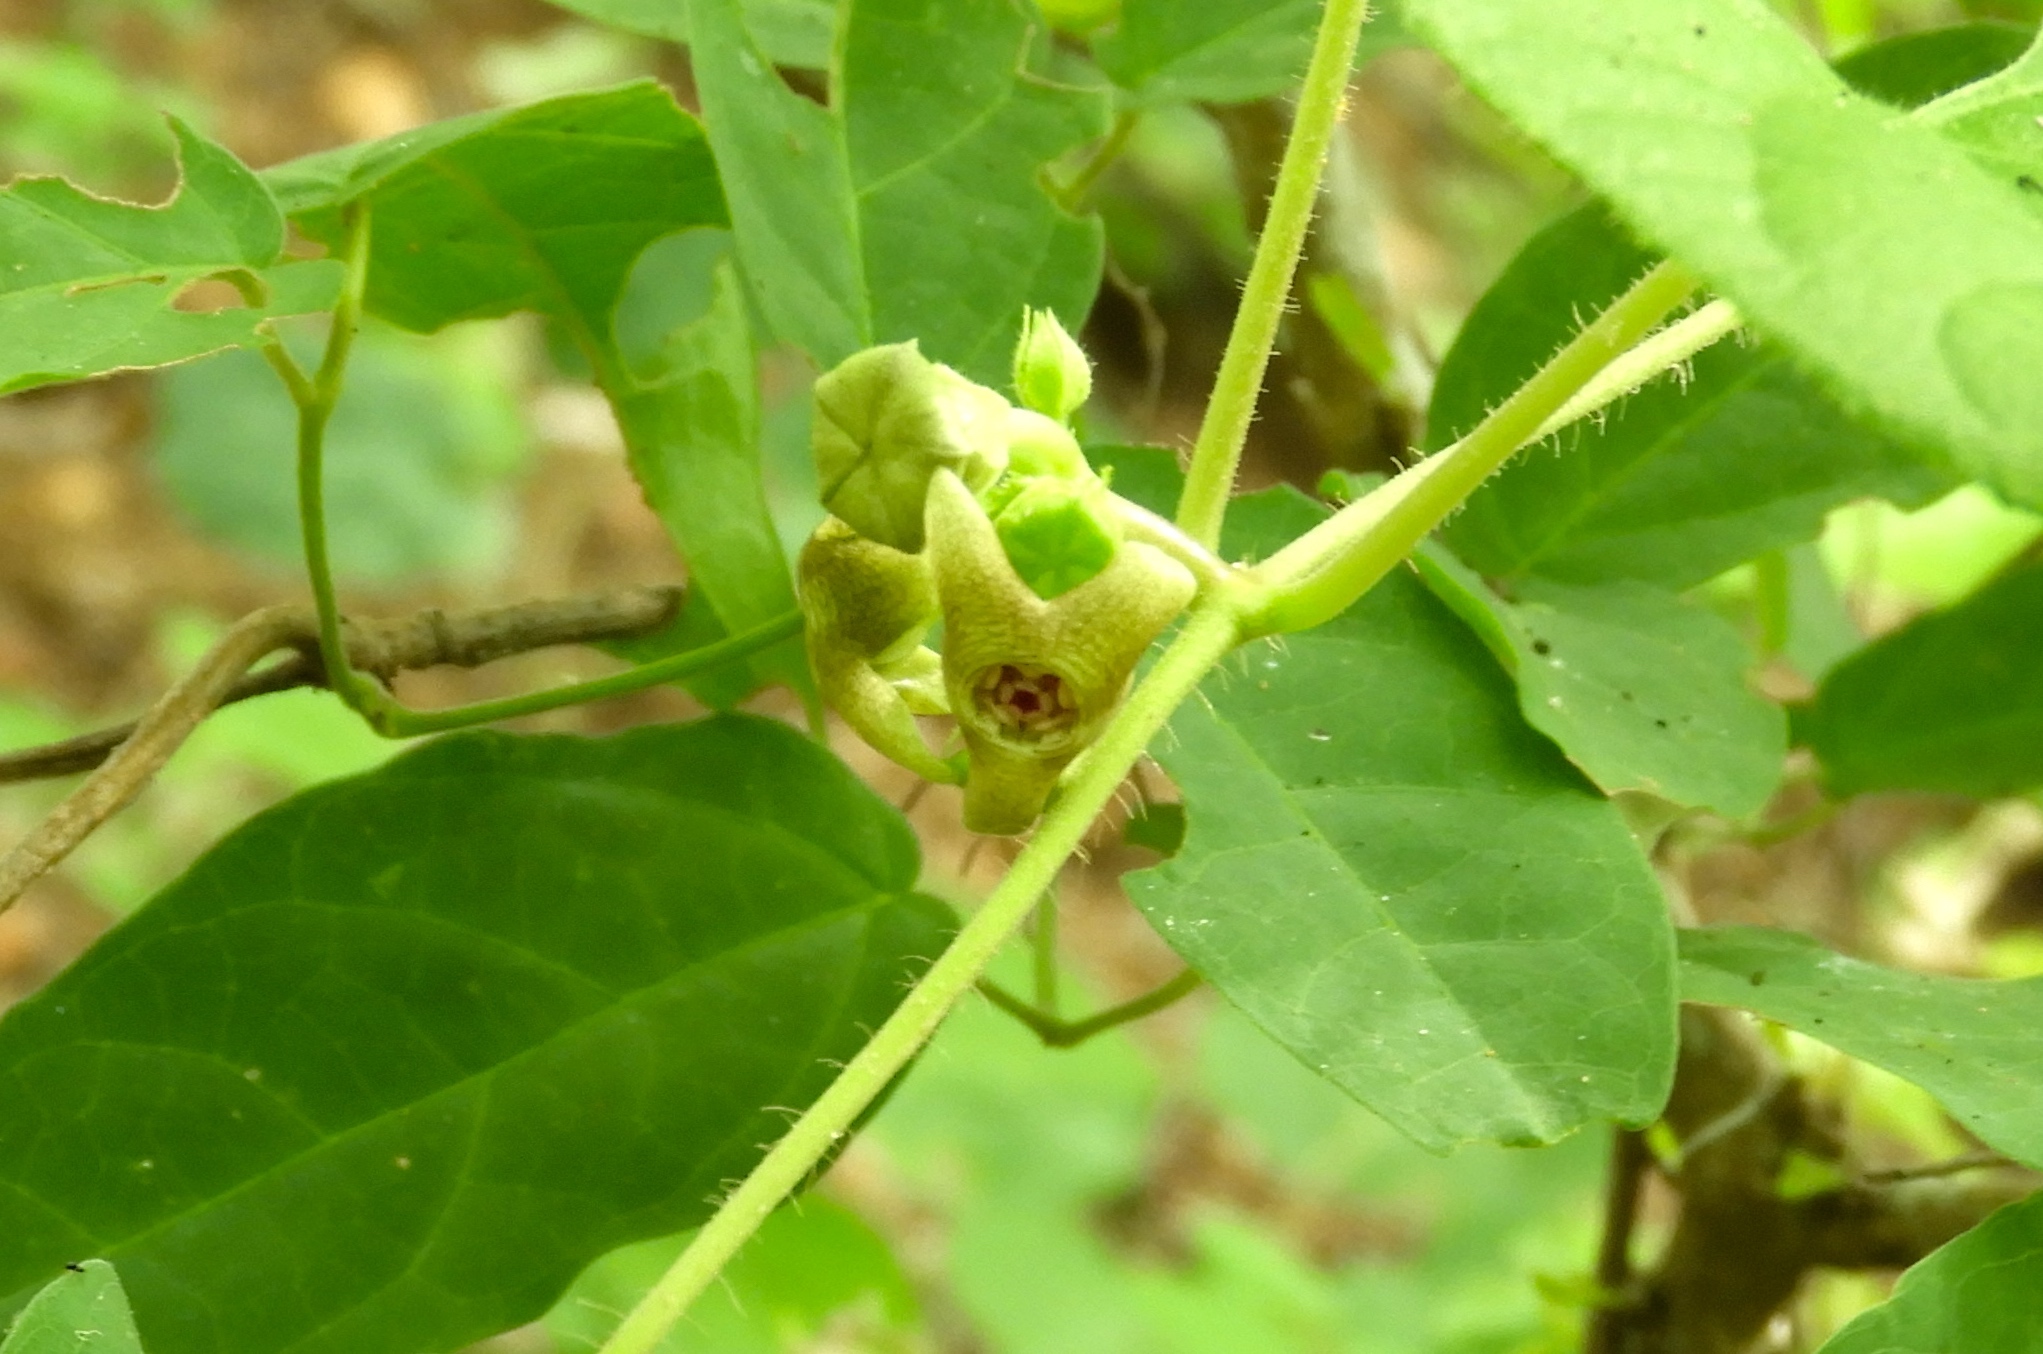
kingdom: Plantae
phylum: Tracheophyta
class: Magnoliopsida
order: Gentianales
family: Apocynaceae
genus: Dictyanthus
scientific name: Dictyanthus sepicola
